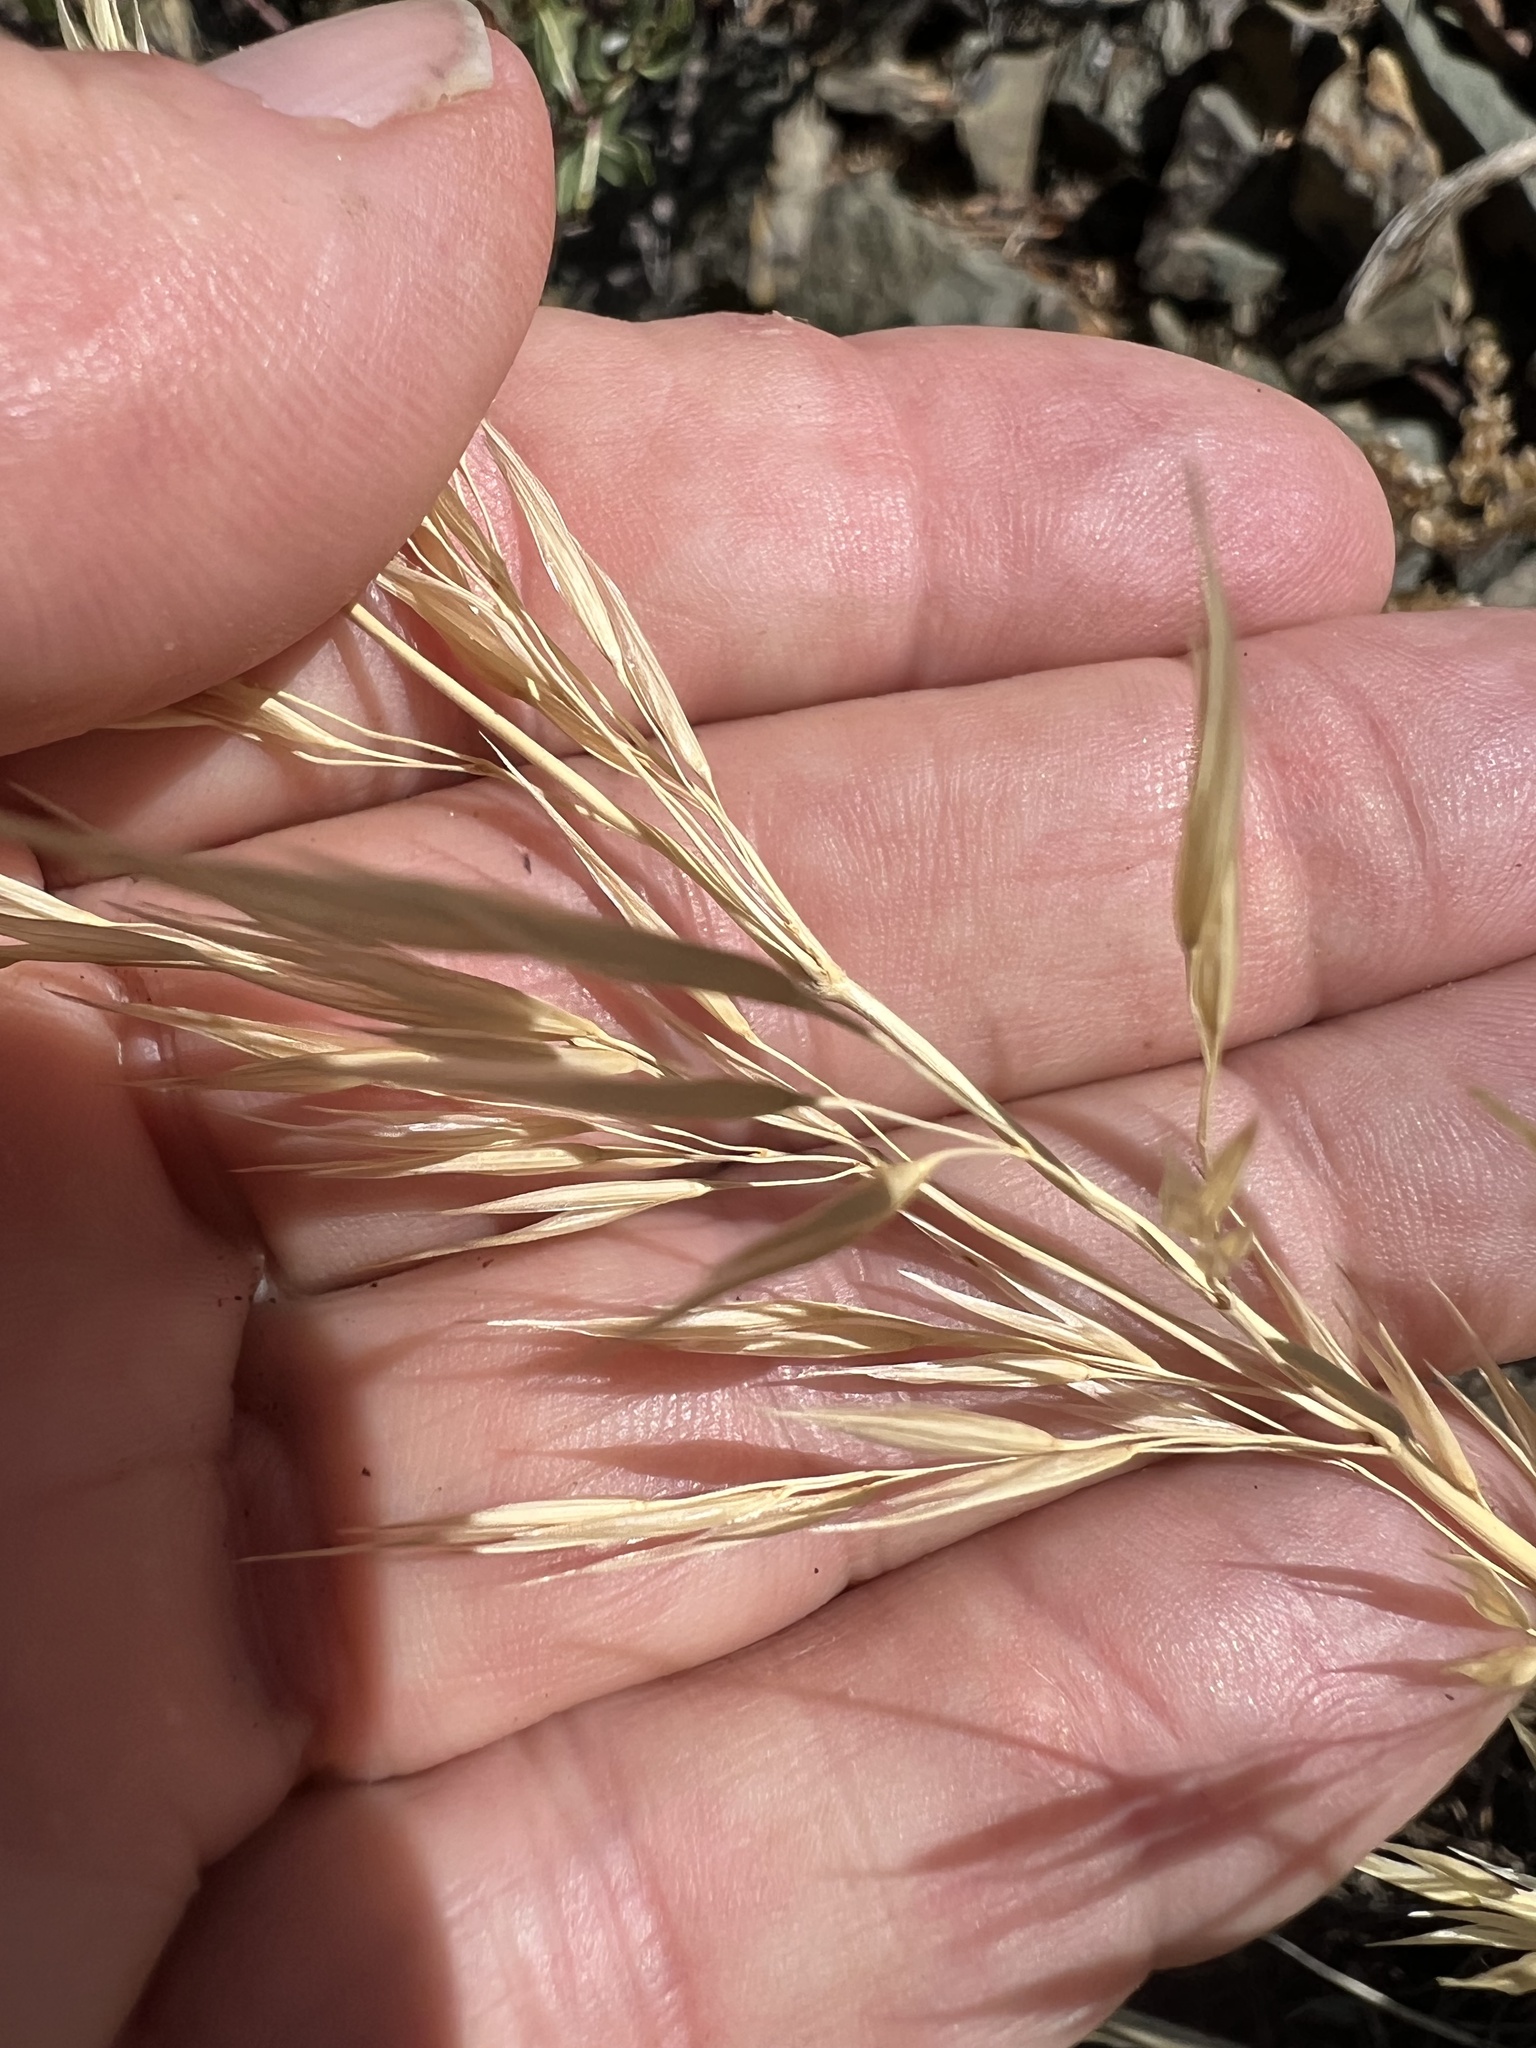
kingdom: Plantae
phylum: Tracheophyta
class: Liliopsida
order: Poales
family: Poaceae
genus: Eriocoma
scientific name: Eriocoma parishii
